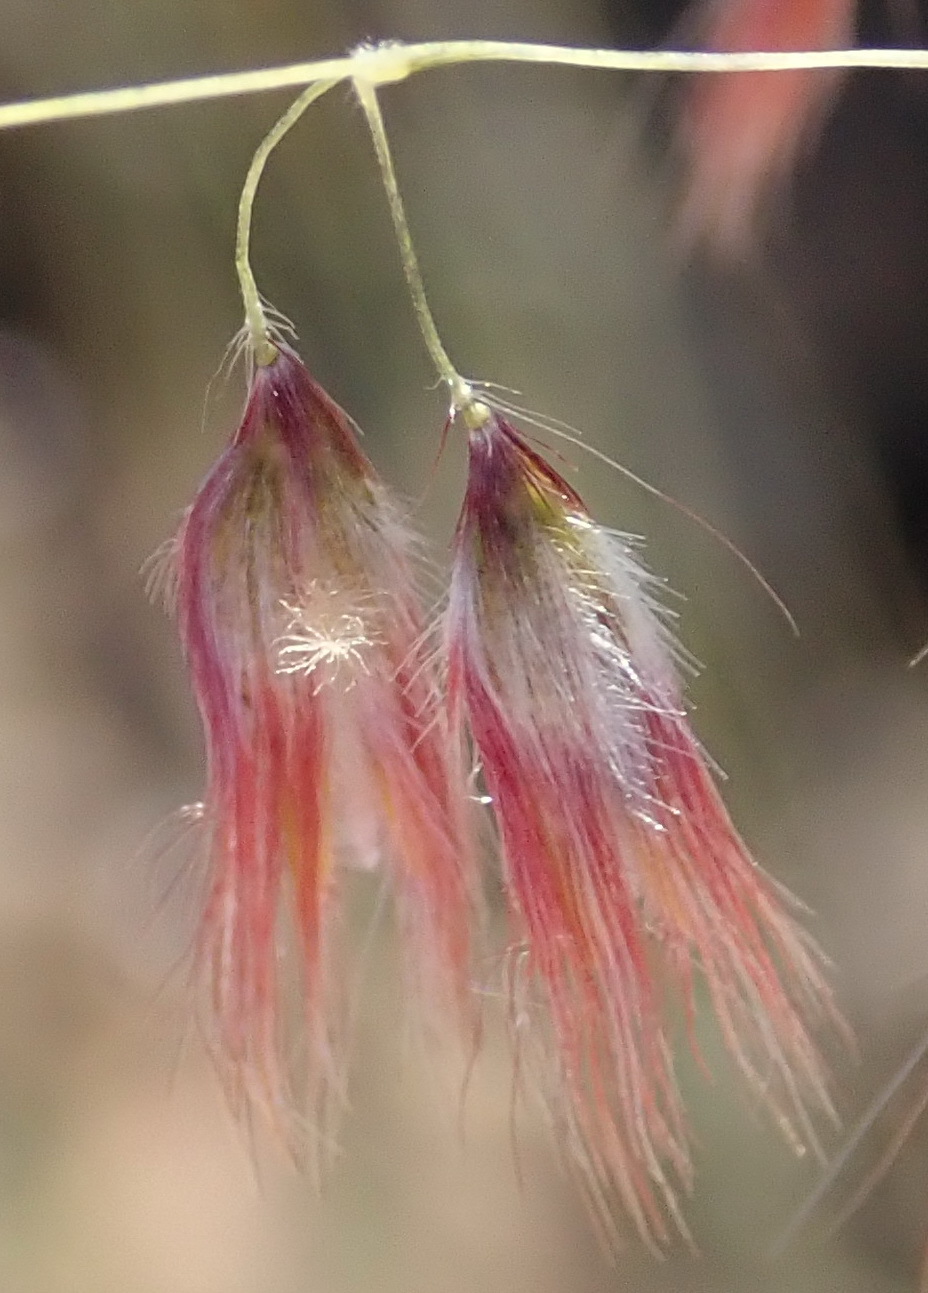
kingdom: Plantae
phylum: Tracheophyta
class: Liliopsida
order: Poales
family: Poaceae
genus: Melinis
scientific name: Melinis repens
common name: Rose natal grass
